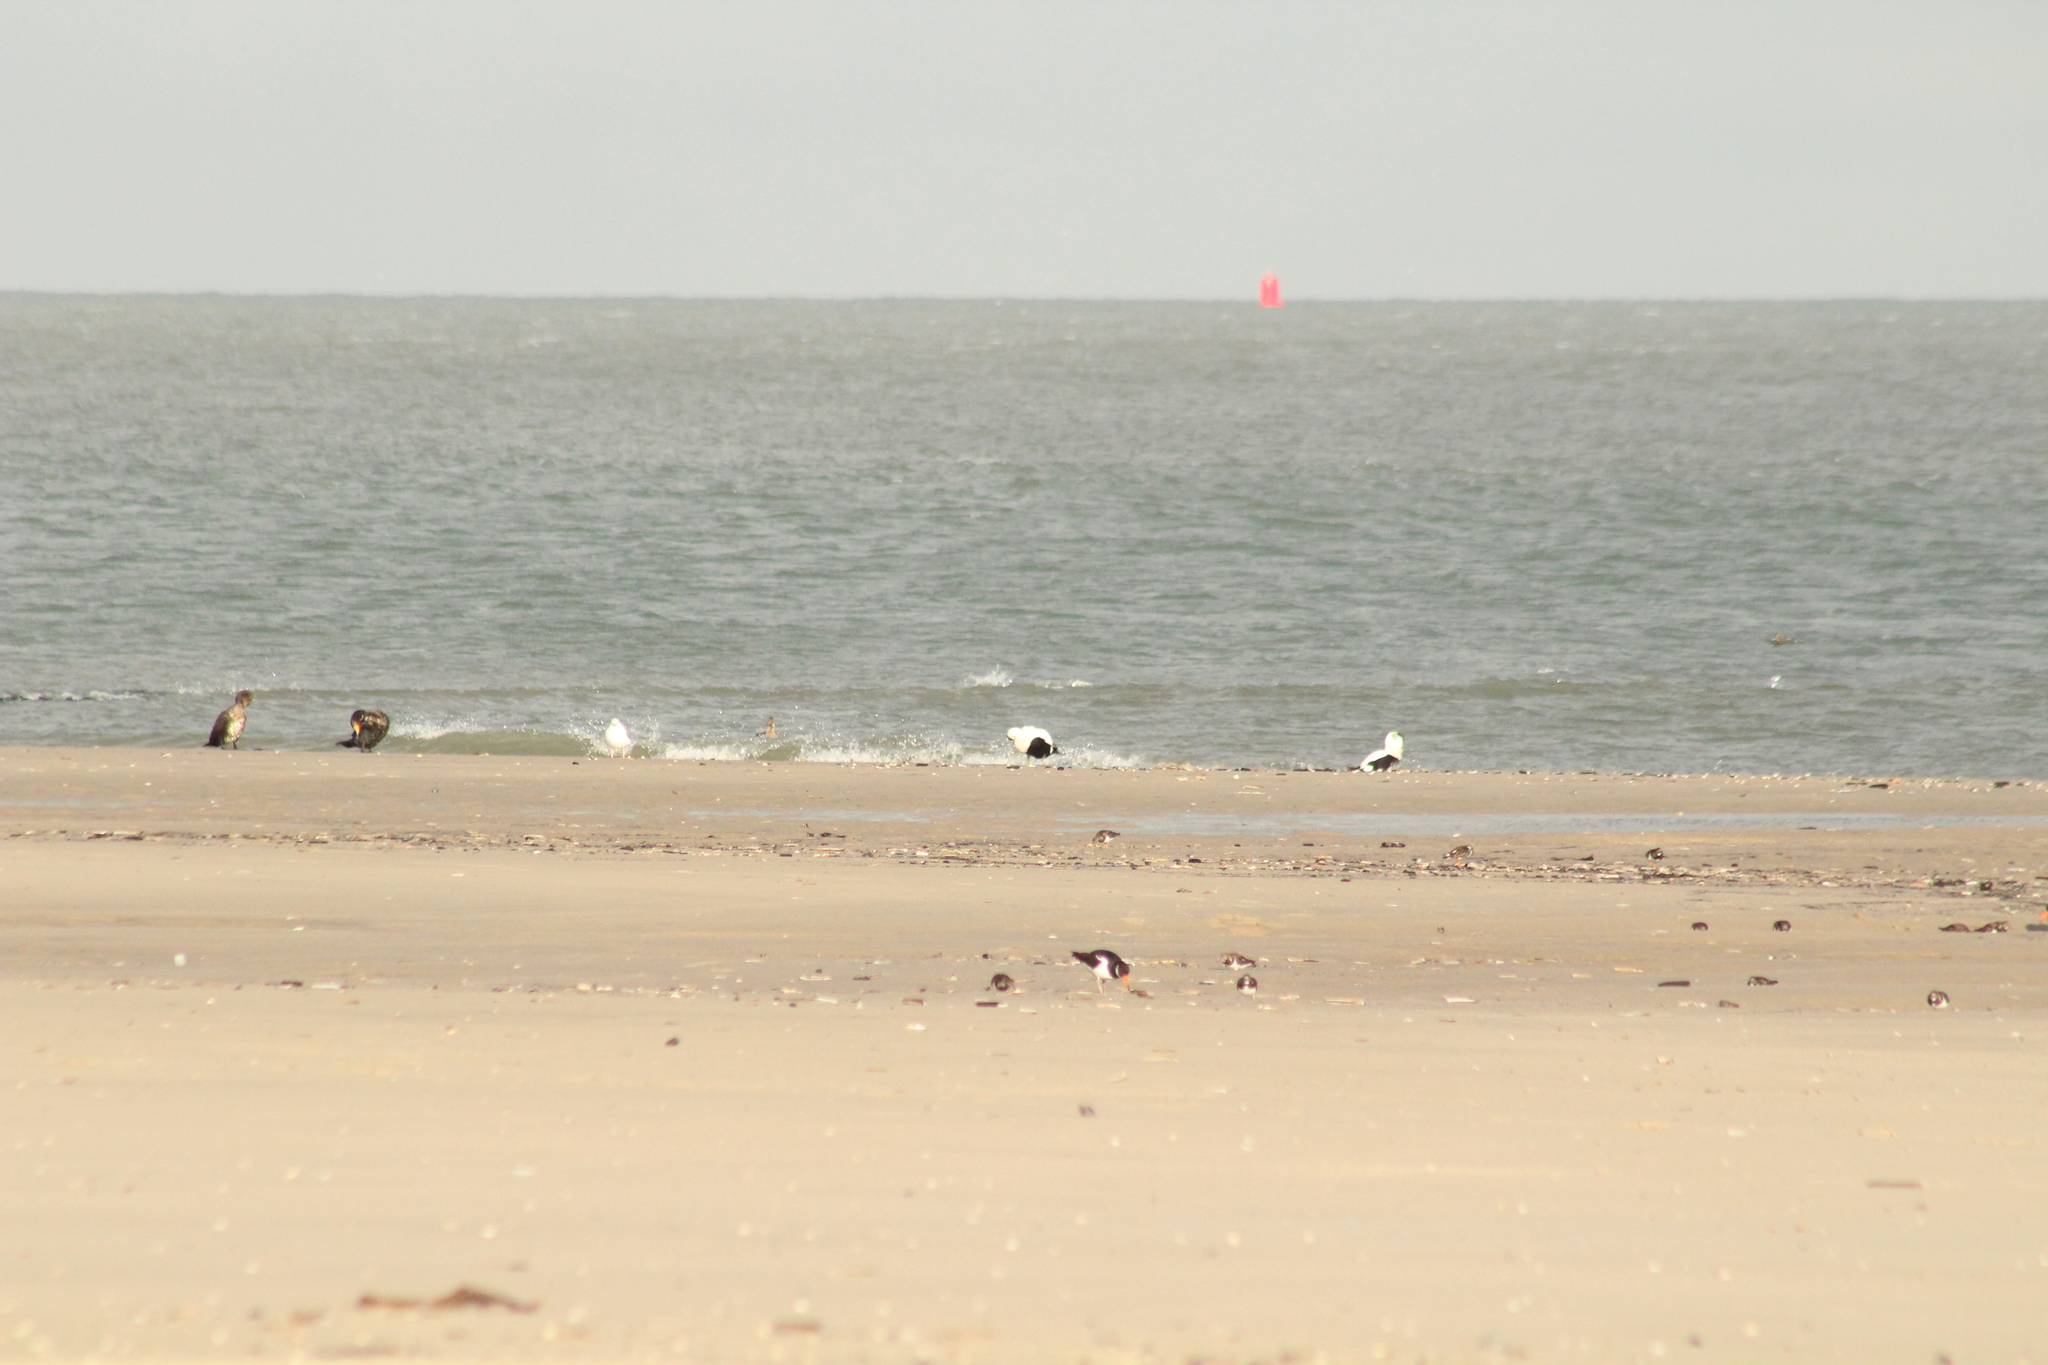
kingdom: Animalia
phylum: Chordata
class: Aves
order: Anseriformes
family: Anatidae
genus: Somateria
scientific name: Somateria mollissima
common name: Common eider
